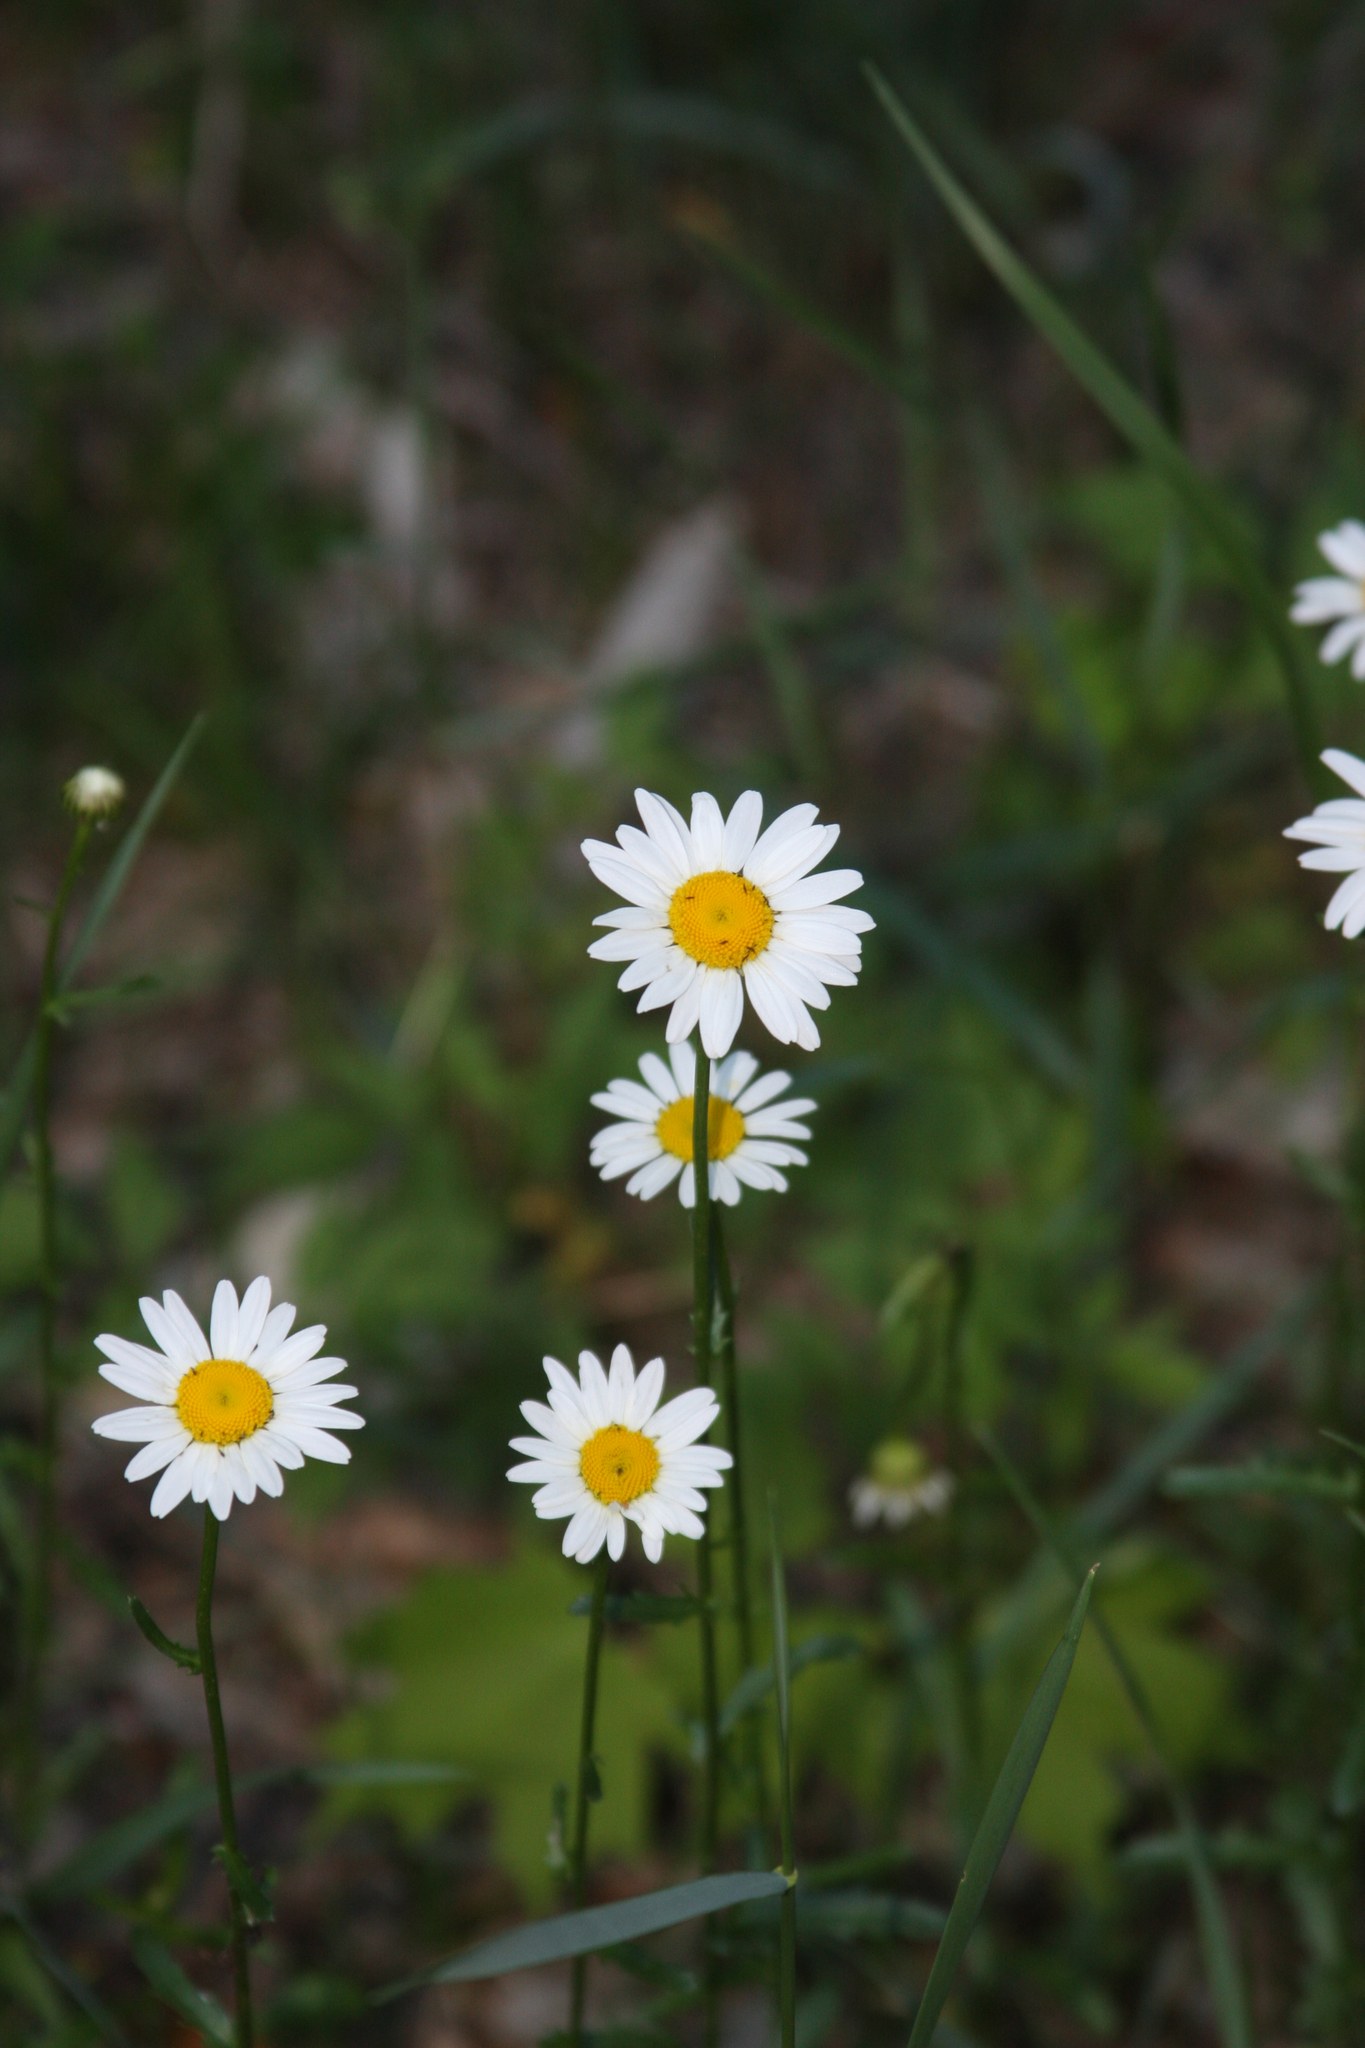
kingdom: Plantae
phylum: Tracheophyta
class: Magnoliopsida
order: Asterales
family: Asteraceae
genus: Leucanthemum
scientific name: Leucanthemum vulgare
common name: Oxeye daisy
